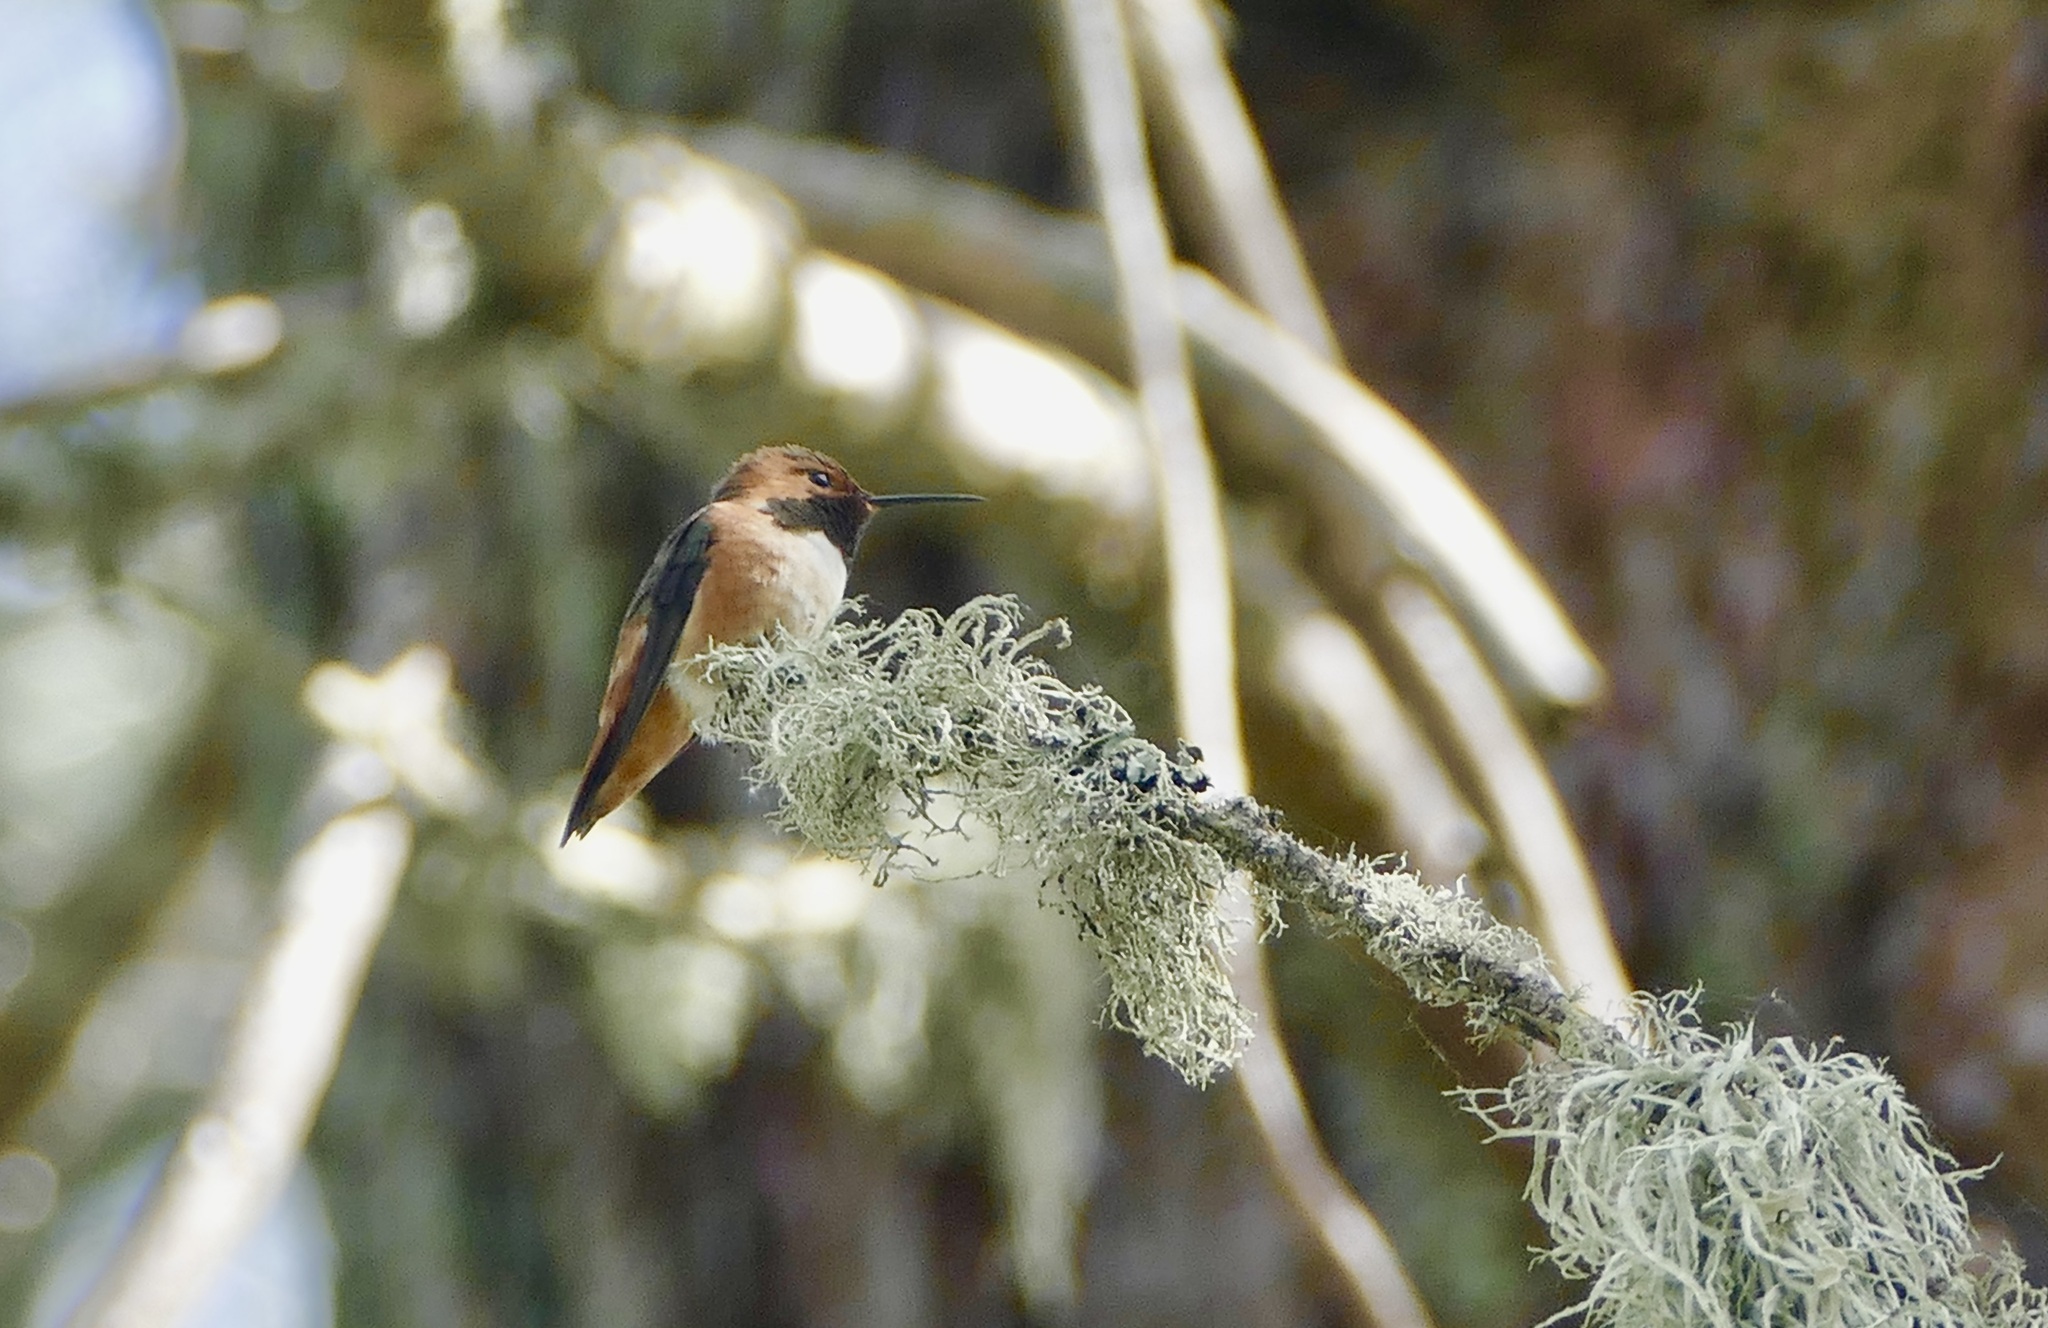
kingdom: Animalia
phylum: Chordata
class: Aves
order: Apodiformes
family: Trochilidae
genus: Selasphorus
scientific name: Selasphorus rufus
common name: Rufous hummingbird
